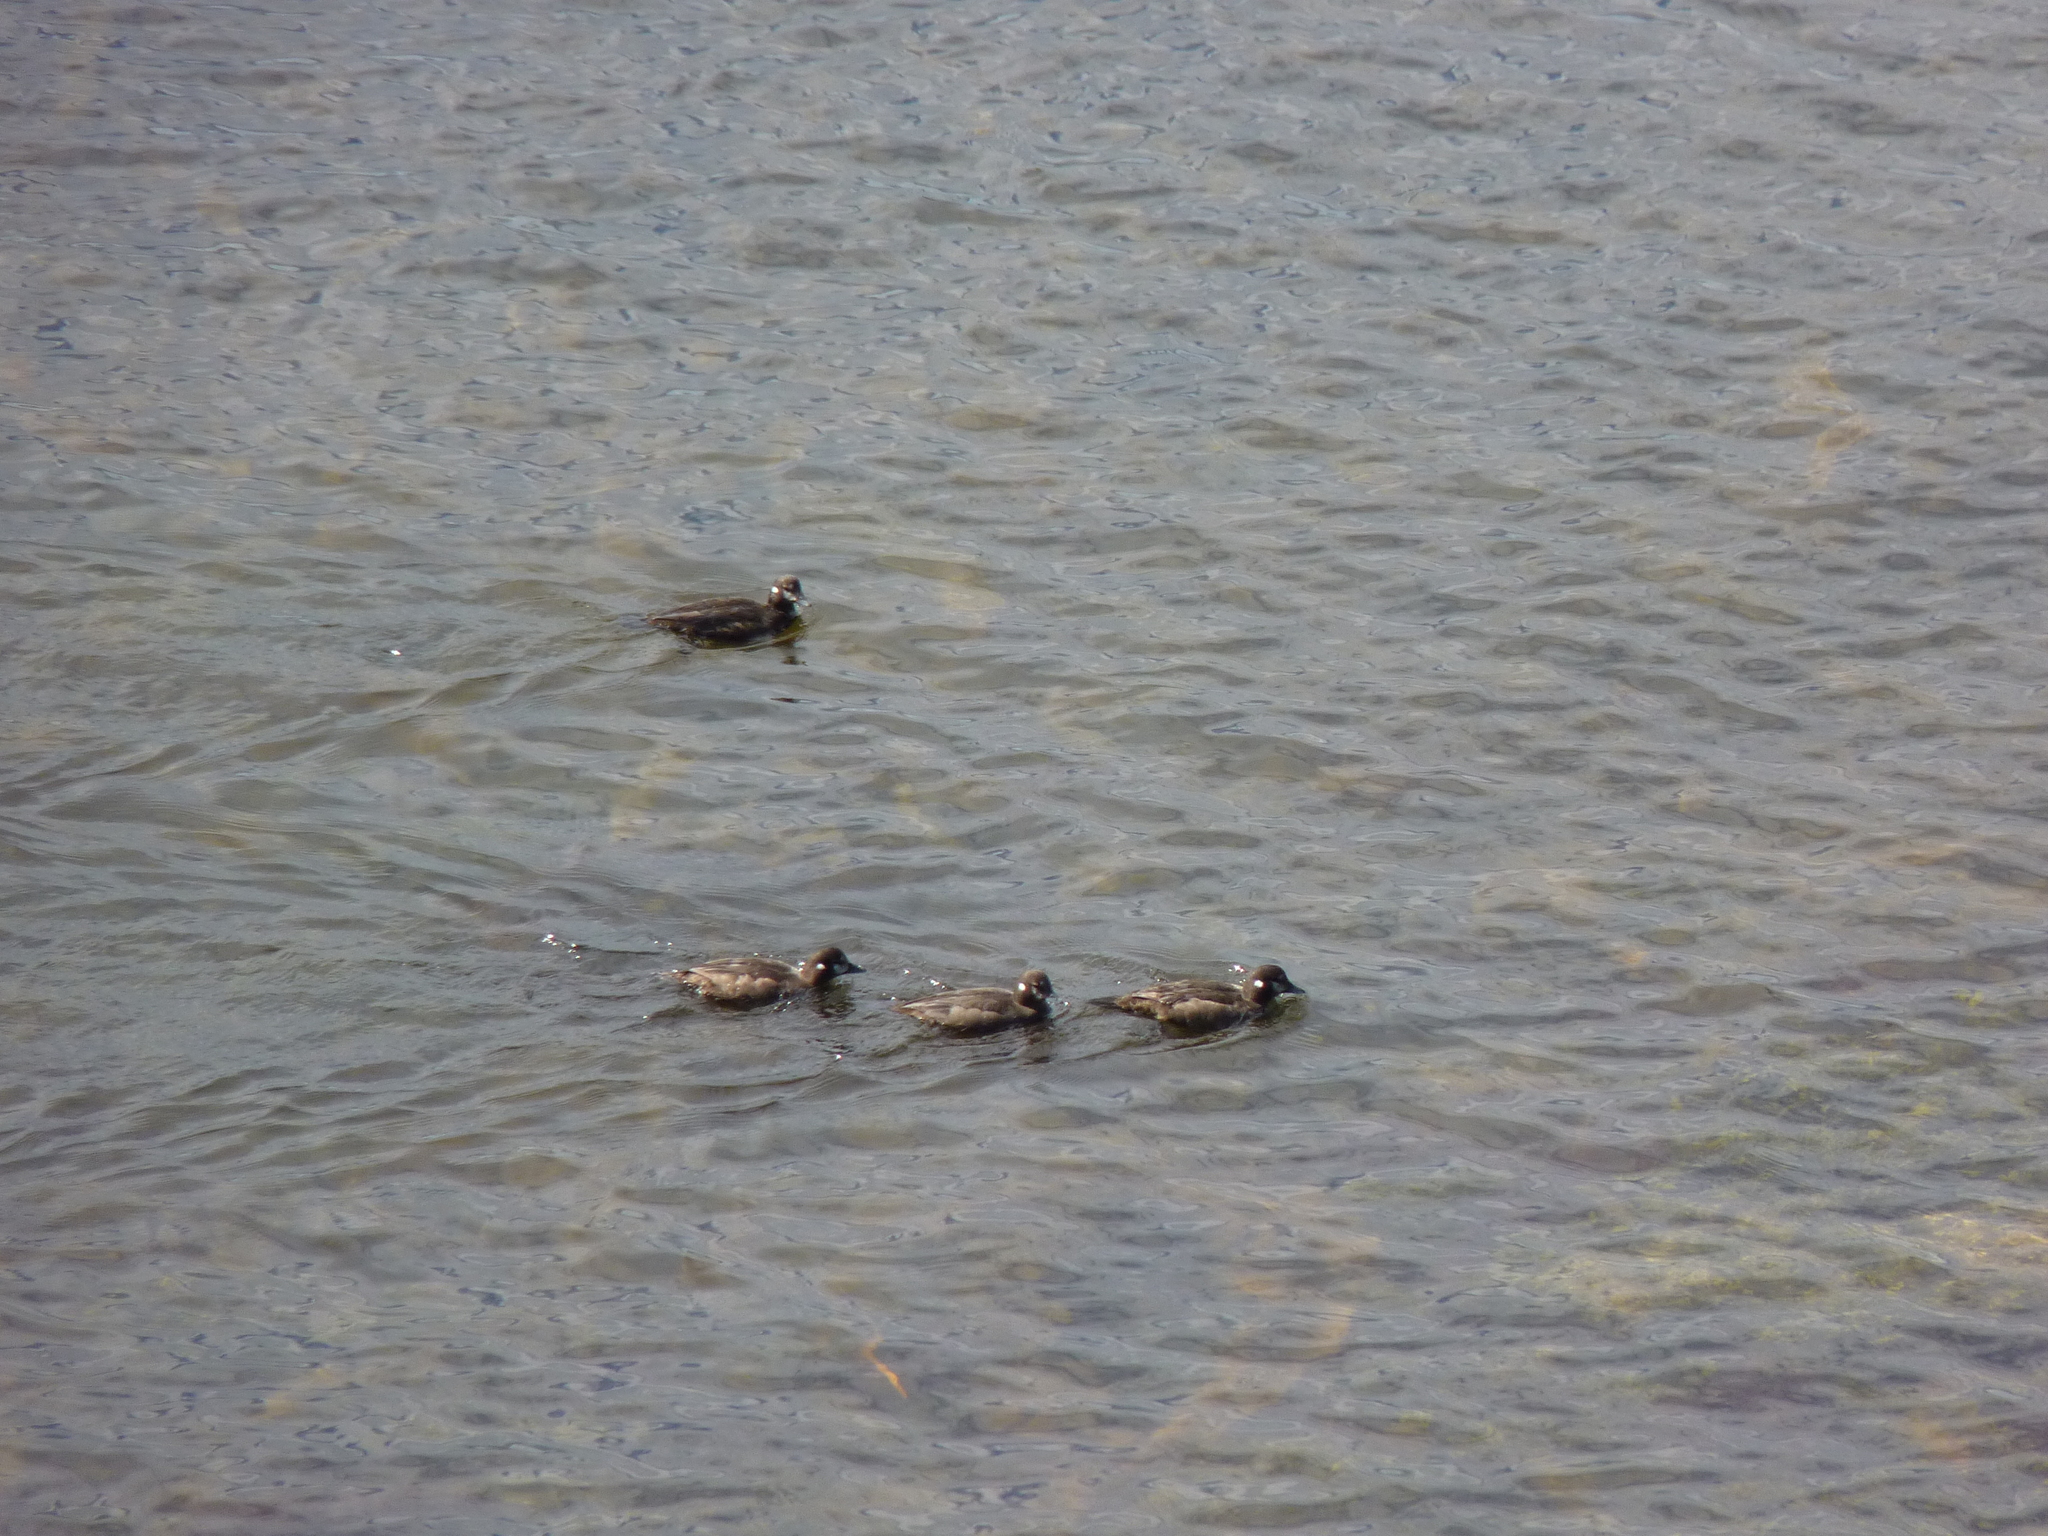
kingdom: Animalia
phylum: Chordata
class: Aves
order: Anseriformes
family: Anatidae
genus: Histrionicus
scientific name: Histrionicus histrionicus
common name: Harlequin duck
